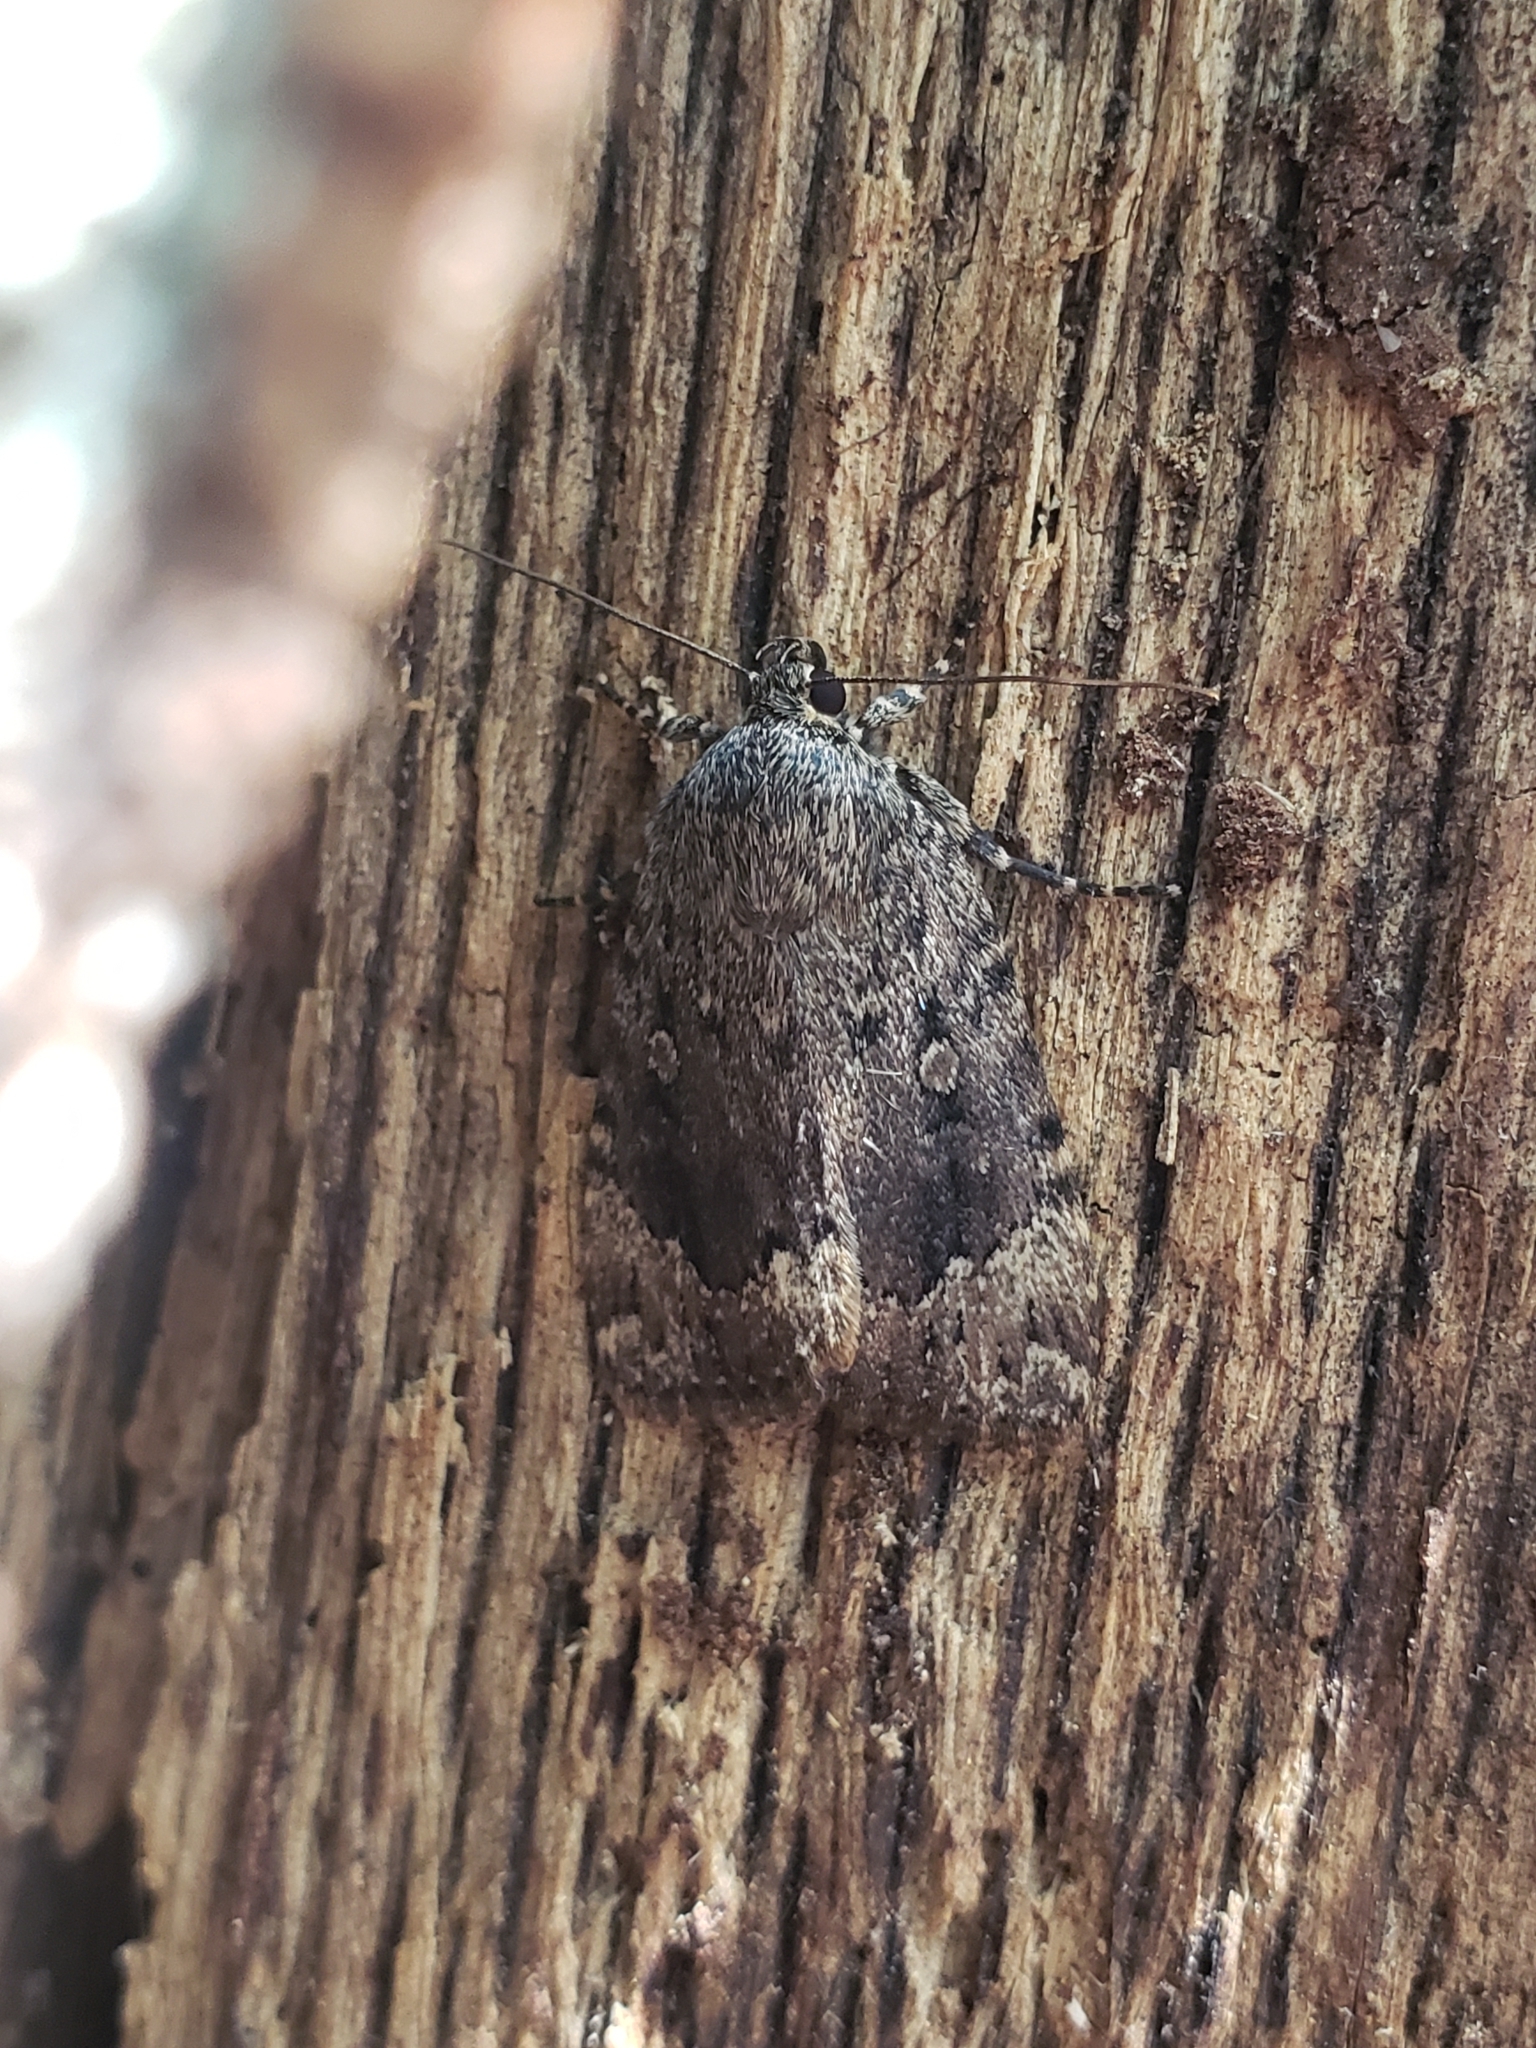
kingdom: Animalia
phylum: Arthropoda
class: Insecta
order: Lepidoptera
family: Noctuidae
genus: Amphipyra
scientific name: Amphipyra pyramidoides
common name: American copper underwing
